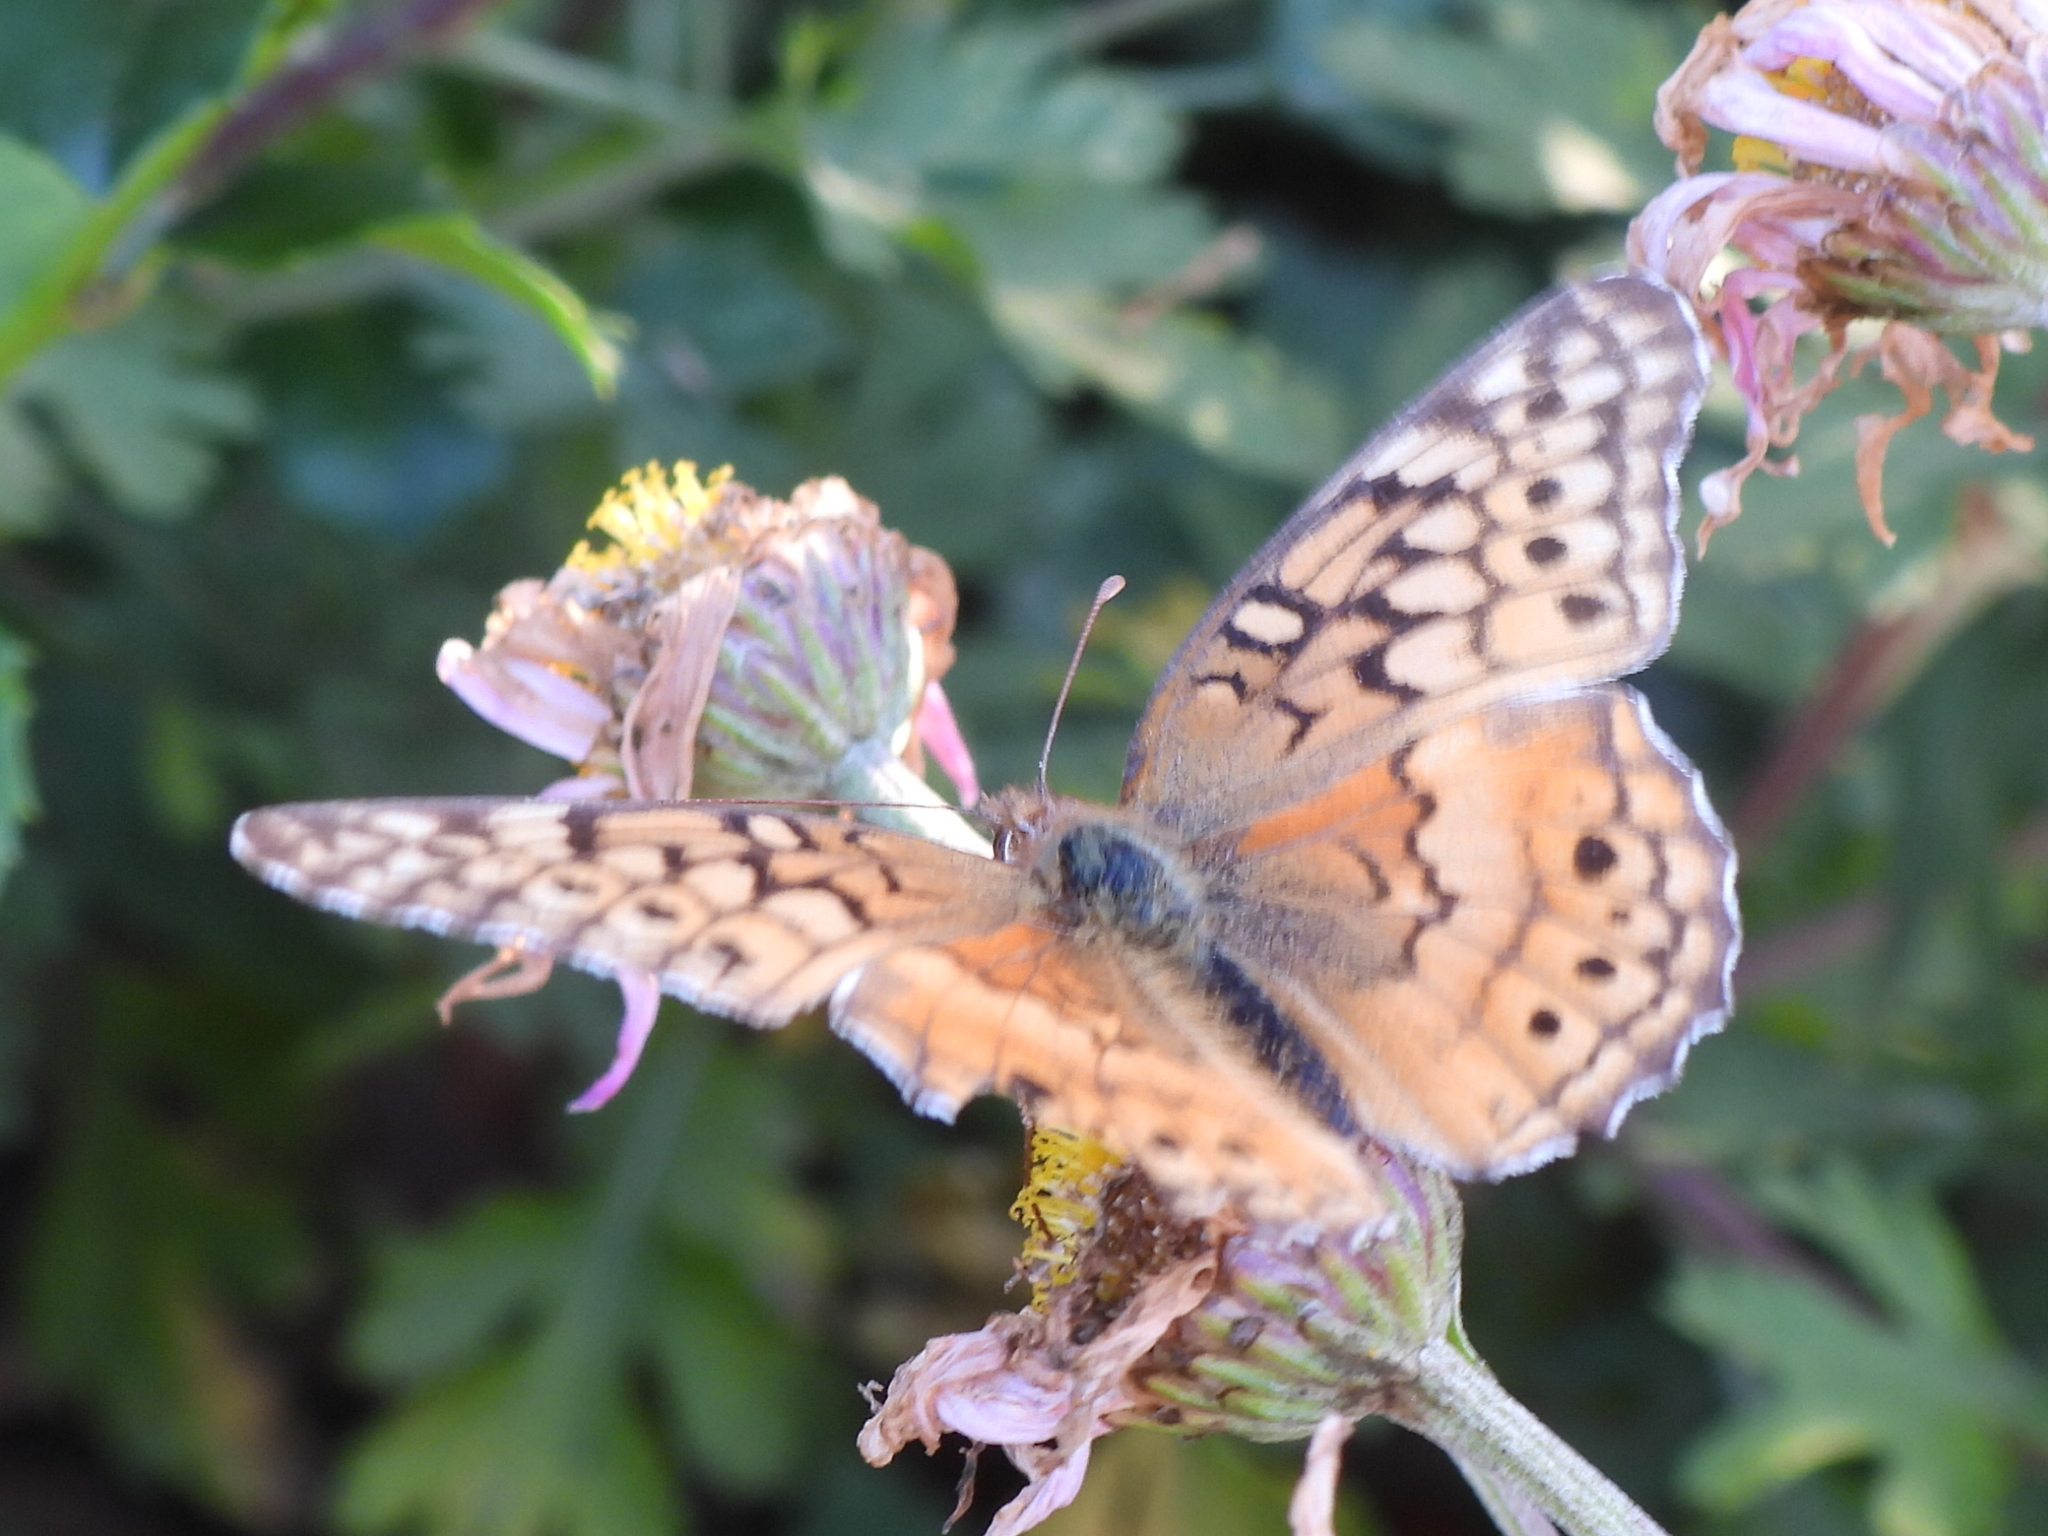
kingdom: Animalia
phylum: Arthropoda
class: Insecta
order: Lepidoptera
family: Nymphalidae
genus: Euptoieta
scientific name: Euptoieta claudia
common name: Variegated fritillary
